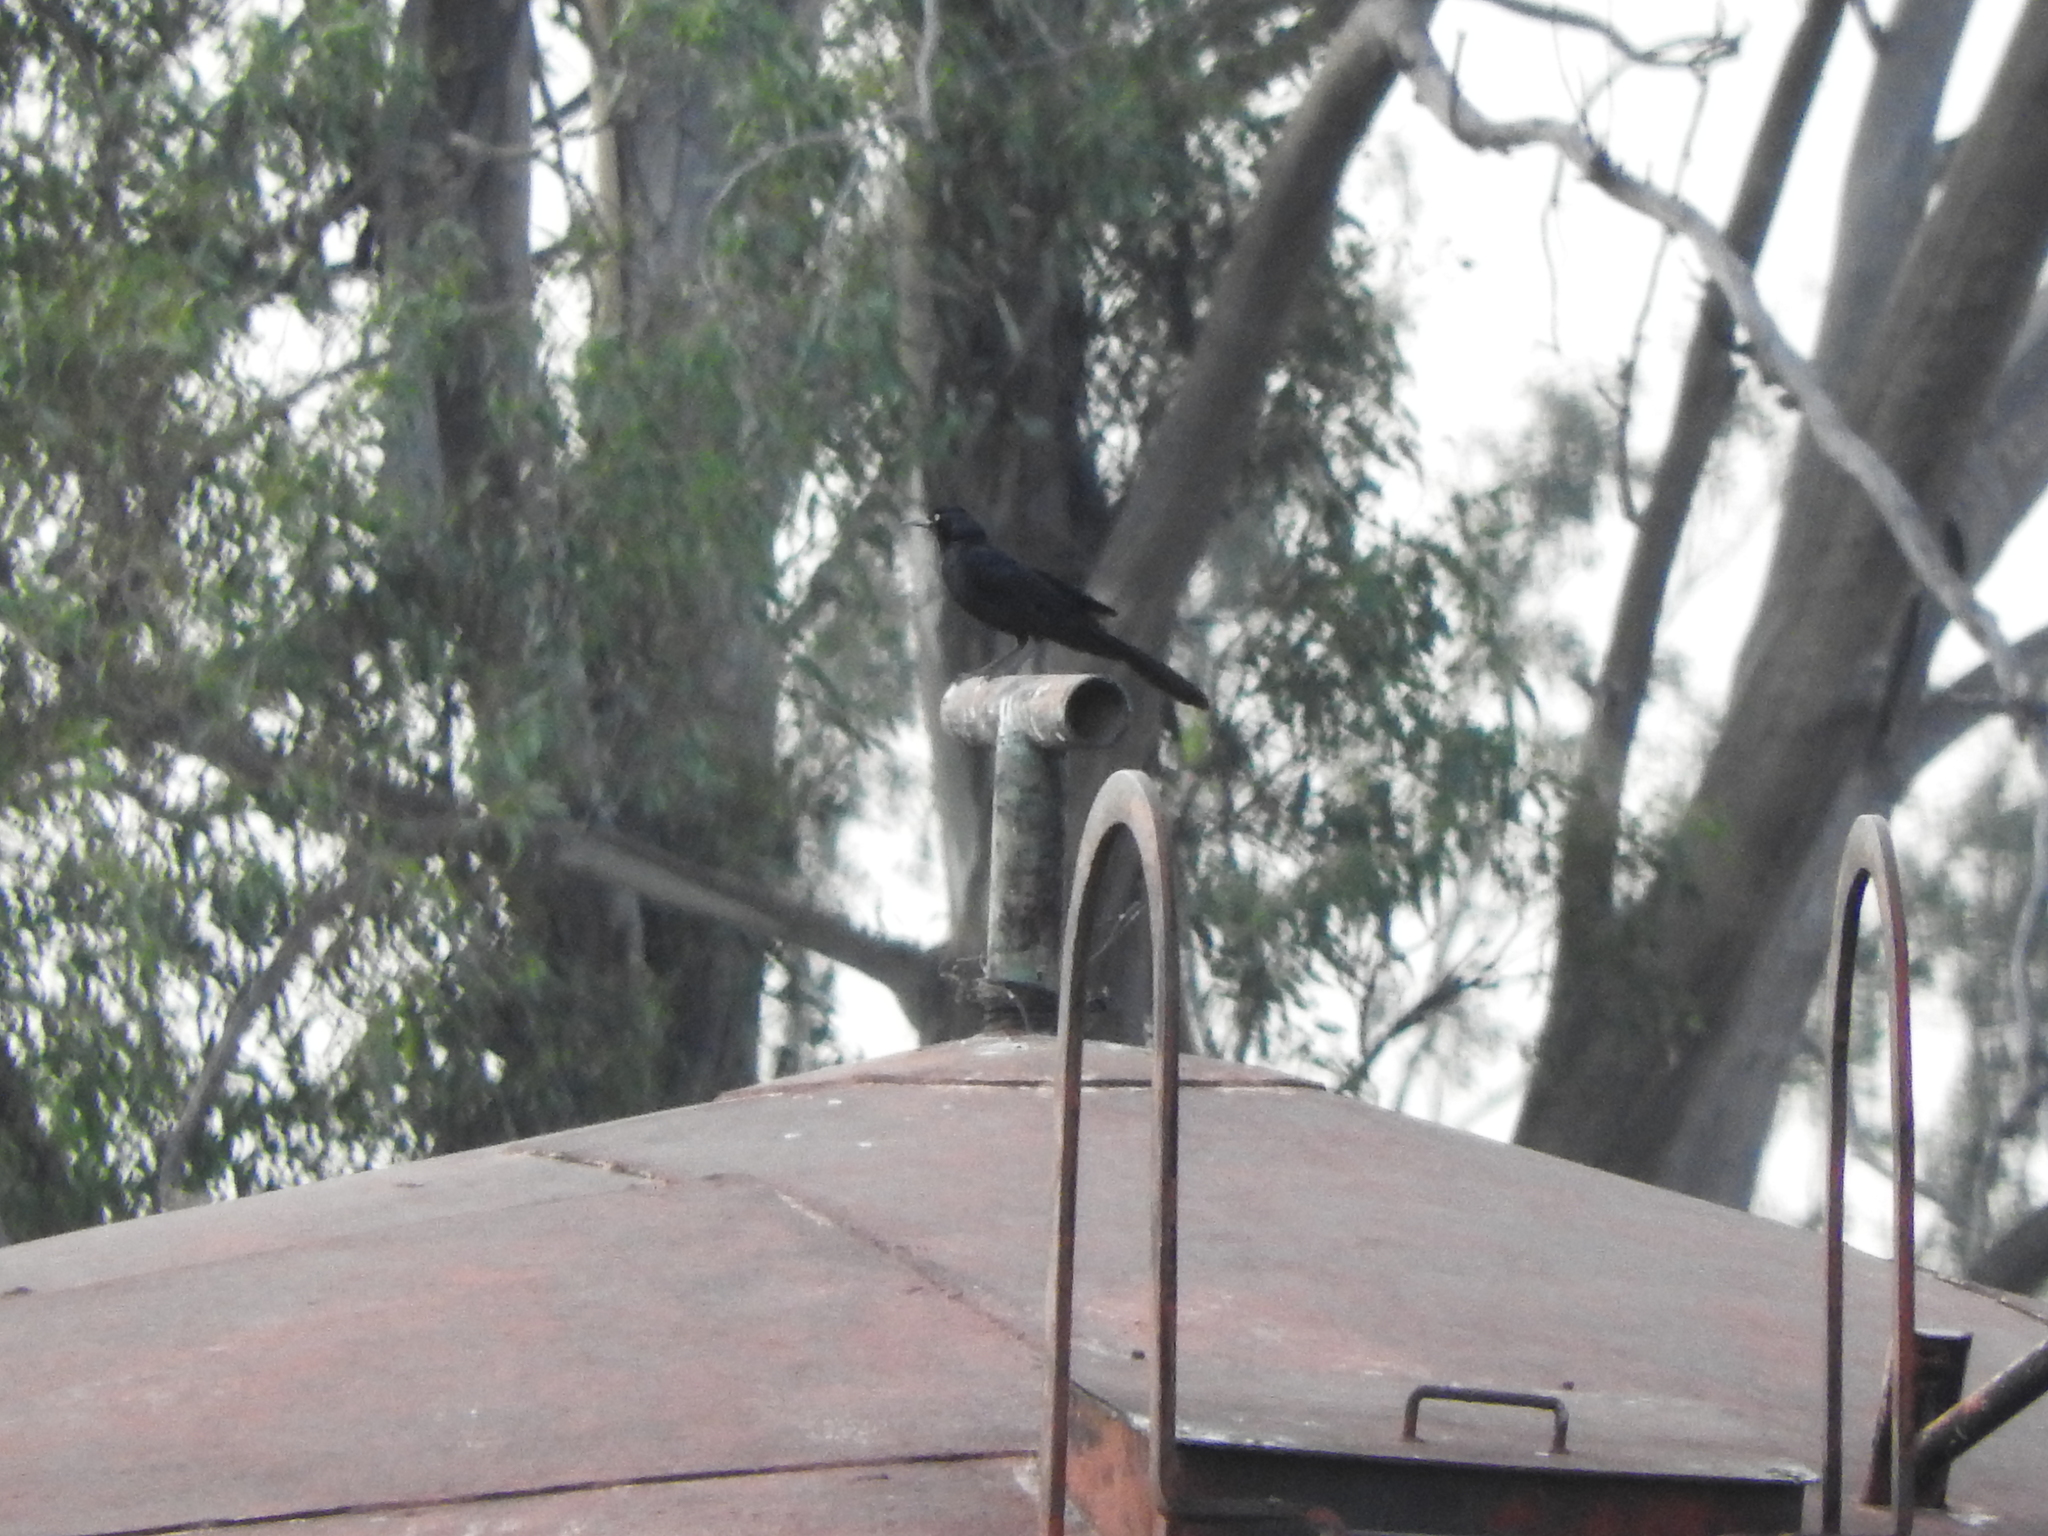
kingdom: Animalia
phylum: Chordata
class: Aves
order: Passeriformes
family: Icteridae
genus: Quiscalus
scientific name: Quiscalus mexicanus
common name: Great-tailed grackle
